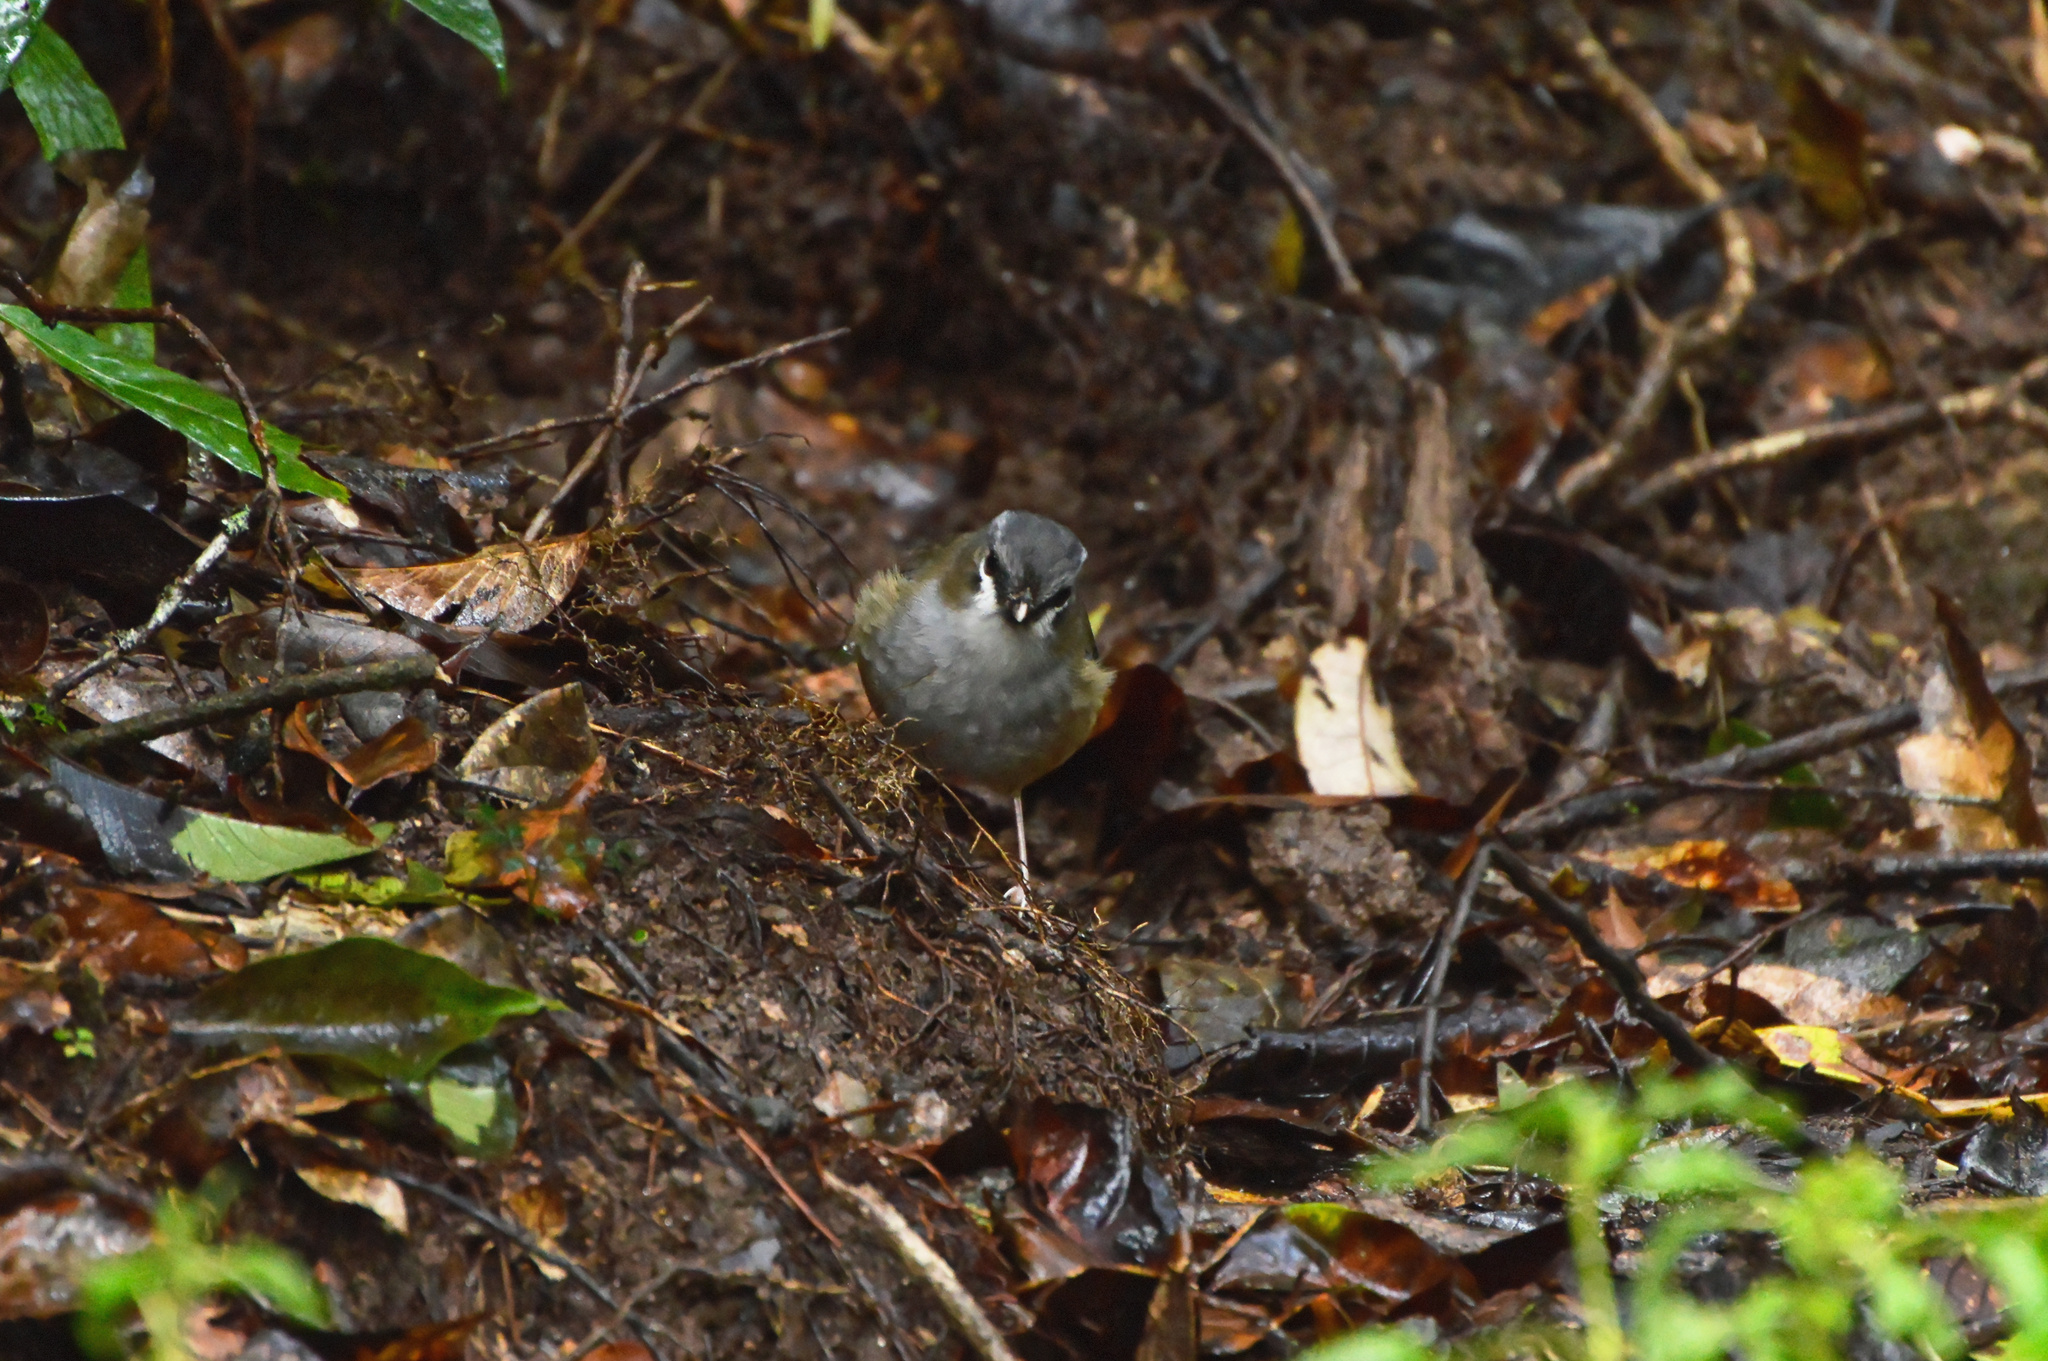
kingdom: Animalia
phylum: Chordata
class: Aves
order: Passeriformes
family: Petroicidae
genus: Heteromyias
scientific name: Heteromyias cinereifrons
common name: Grey-headed robin
